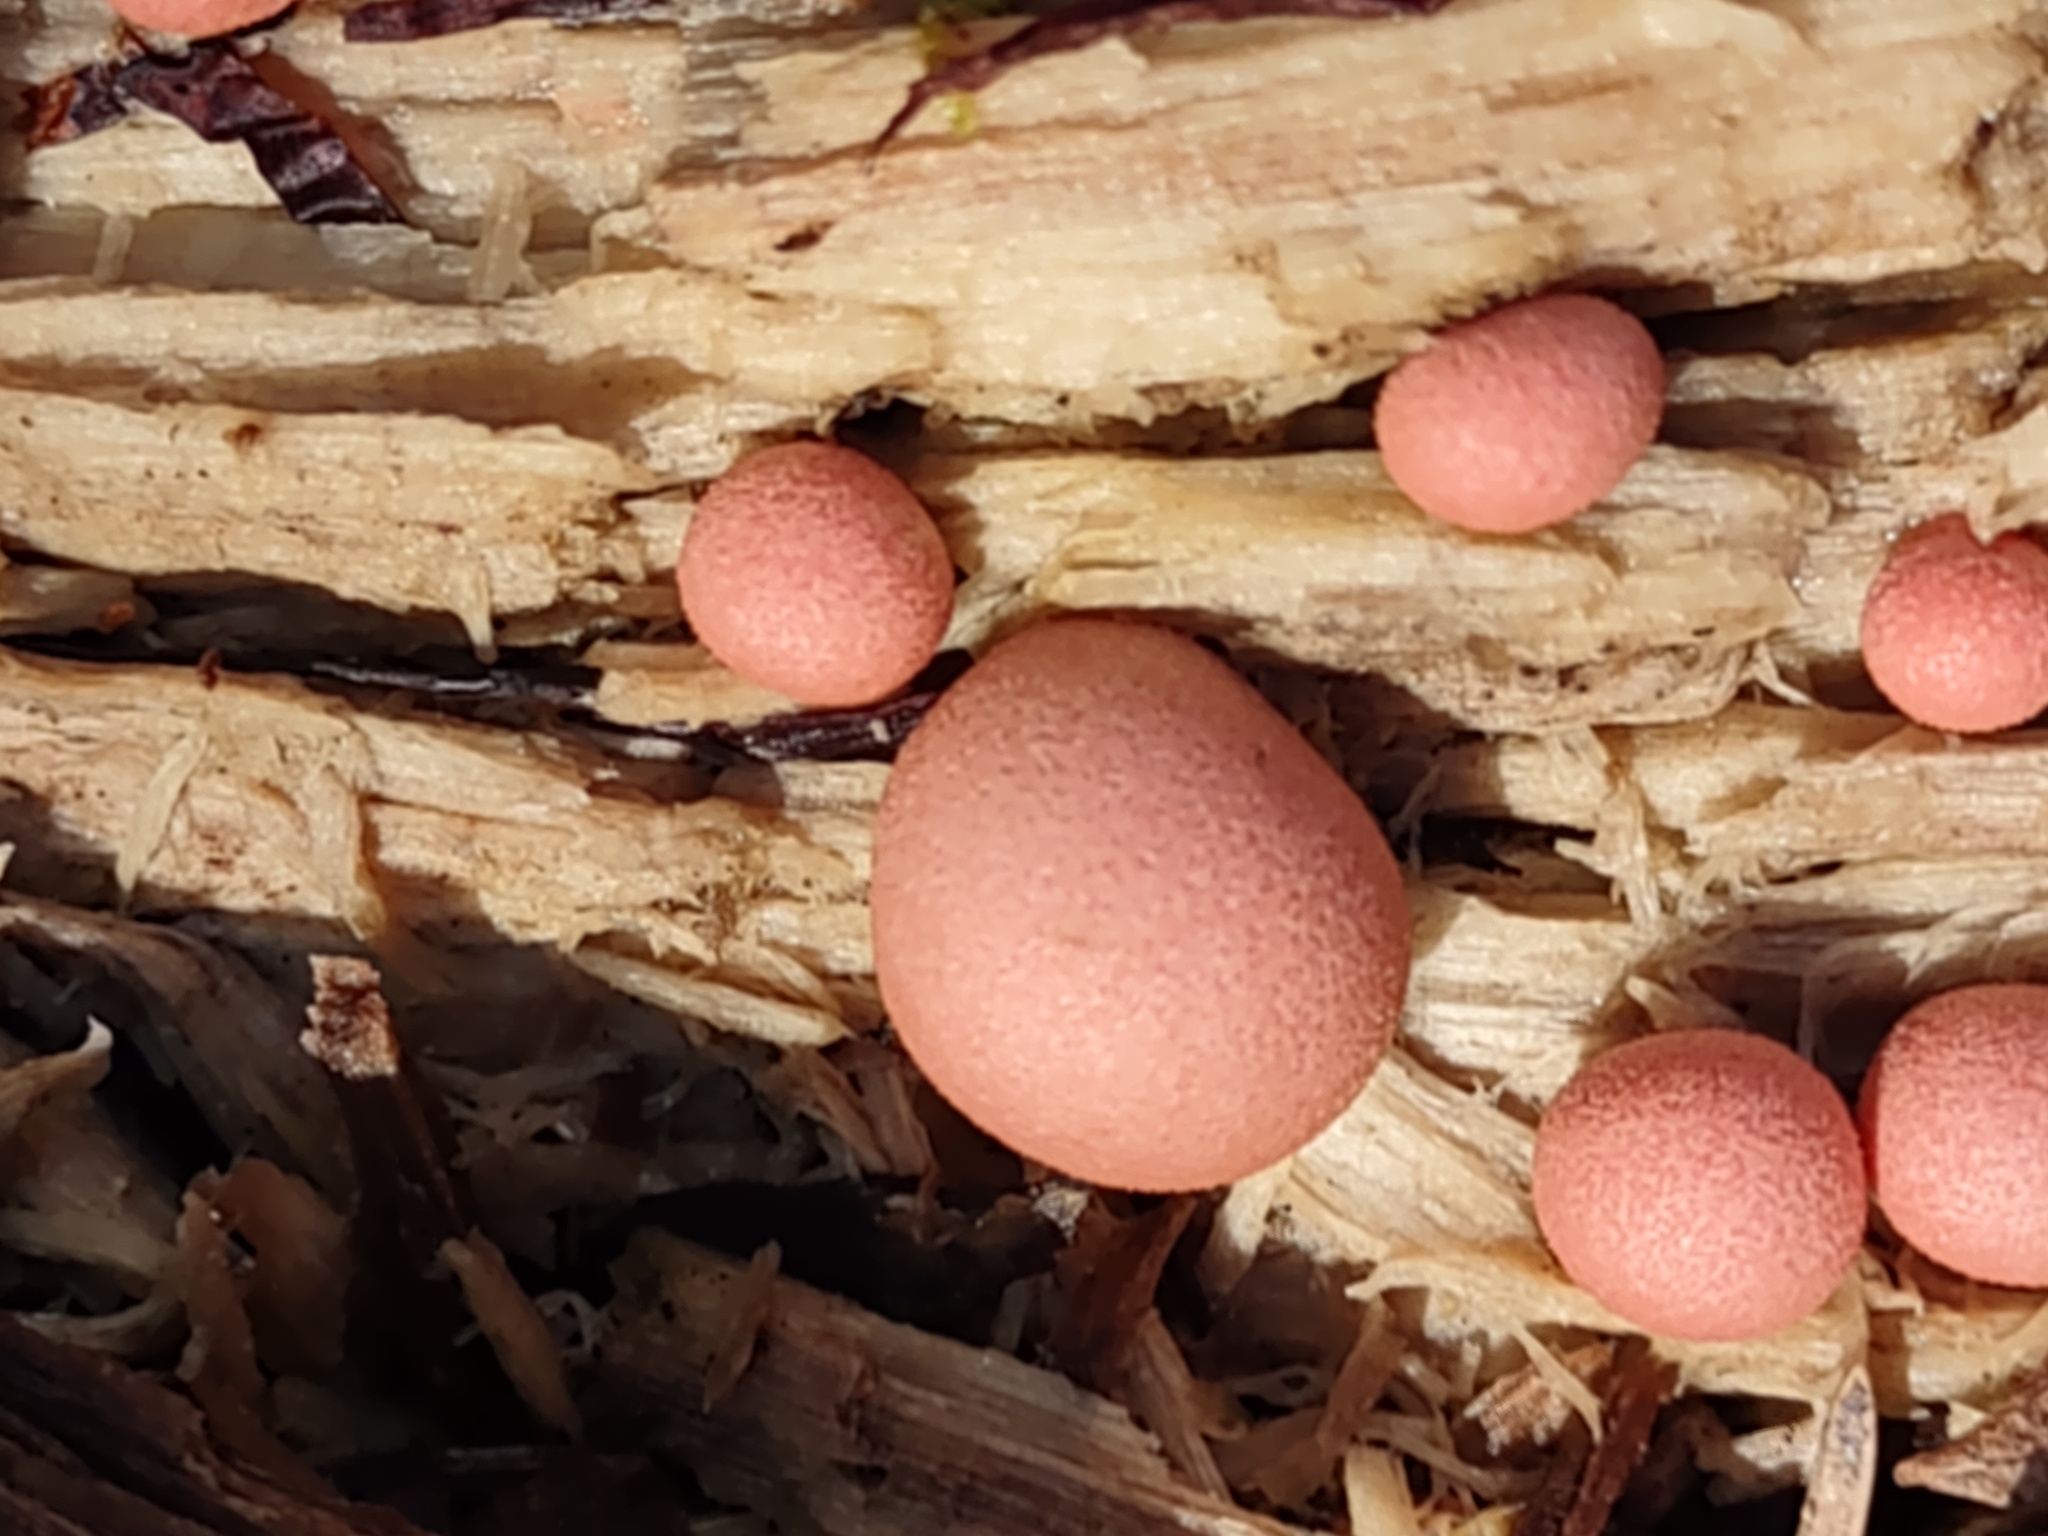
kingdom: Protozoa
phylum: Mycetozoa
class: Myxomycetes
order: Cribrariales
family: Tubiferaceae
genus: Lycogala
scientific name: Lycogala epidendrum
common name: Wolf's milk
